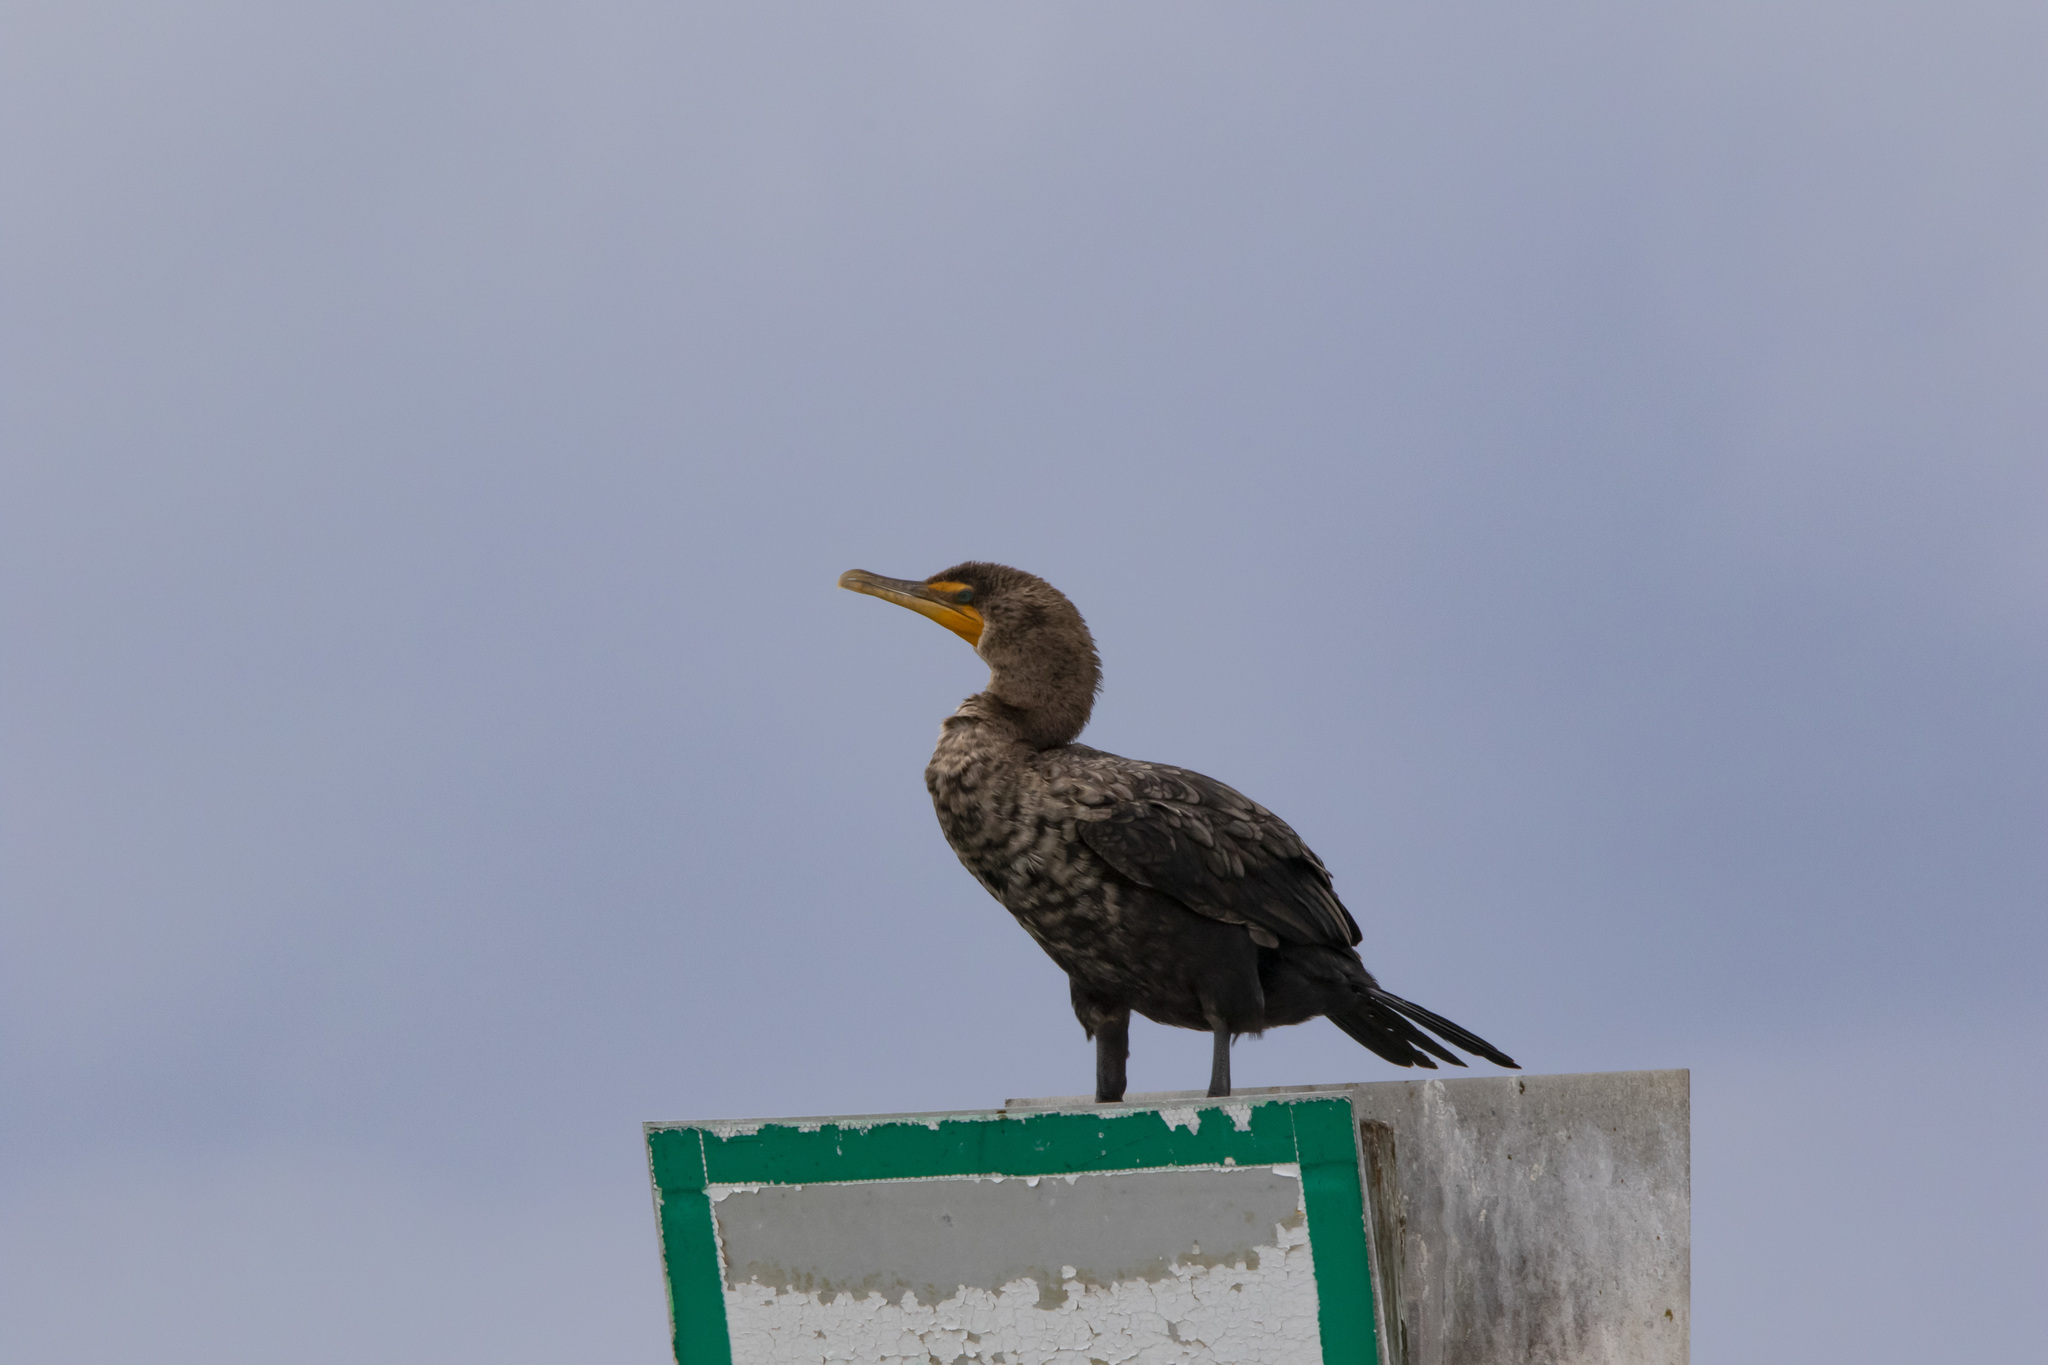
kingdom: Animalia
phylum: Chordata
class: Aves
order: Suliformes
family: Phalacrocoracidae
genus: Phalacrocorax
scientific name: Phalacrocorax auritus
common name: Double-crested cormorant
